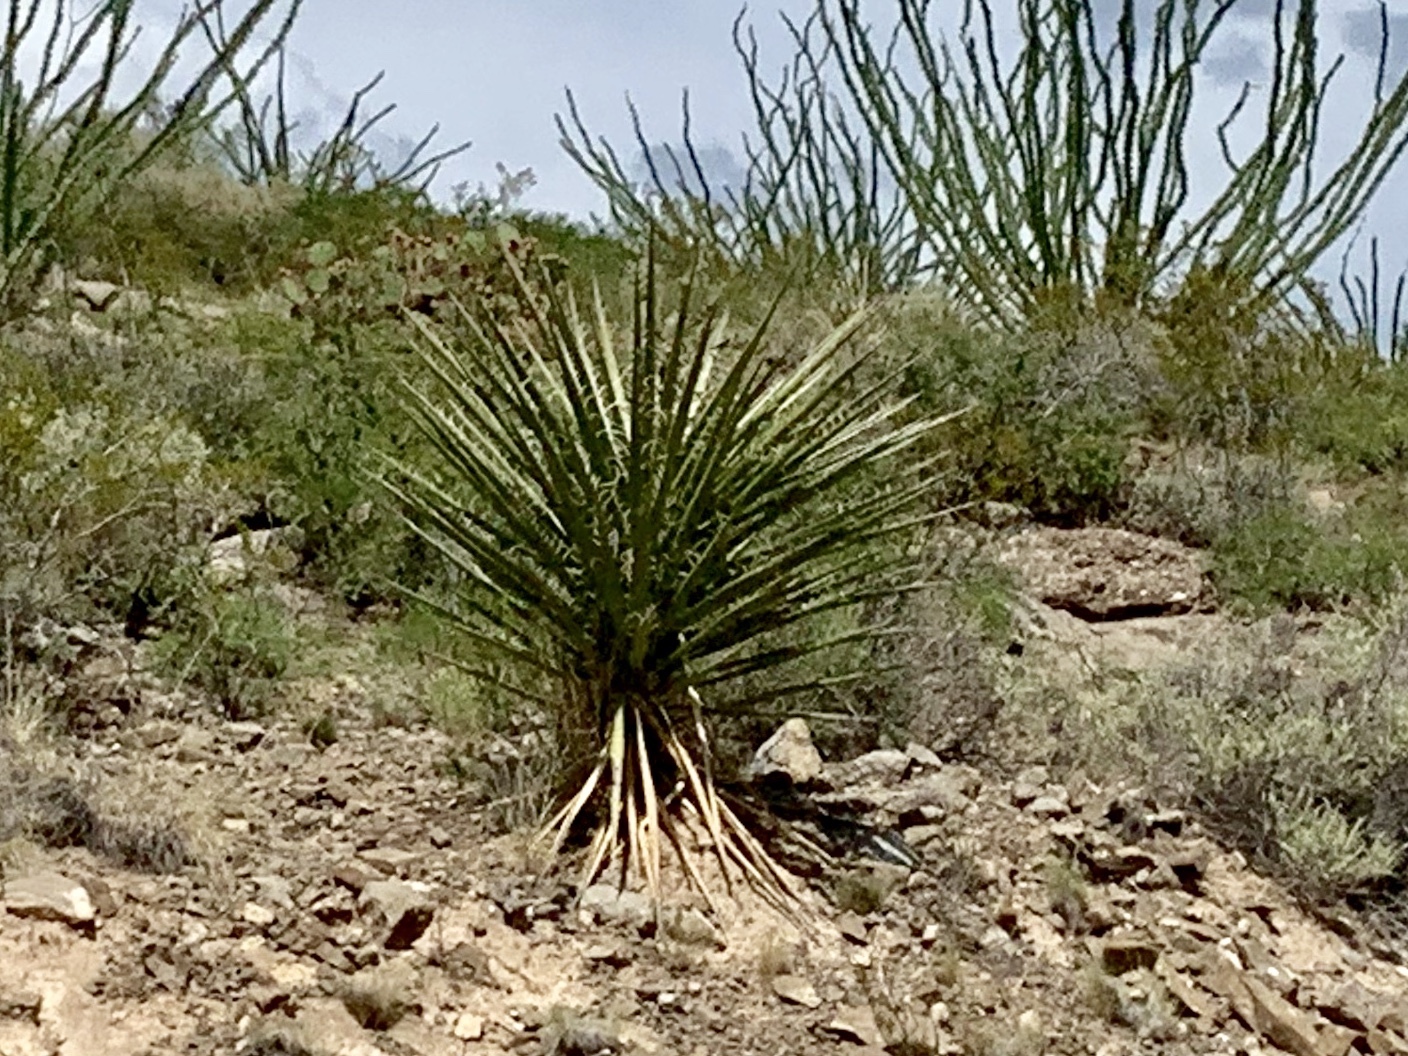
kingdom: Plantae
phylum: Tracheophyta
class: Liliopsida
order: Asparagales
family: Asparagaceae
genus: Yucca
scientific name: Yucca treculiana
